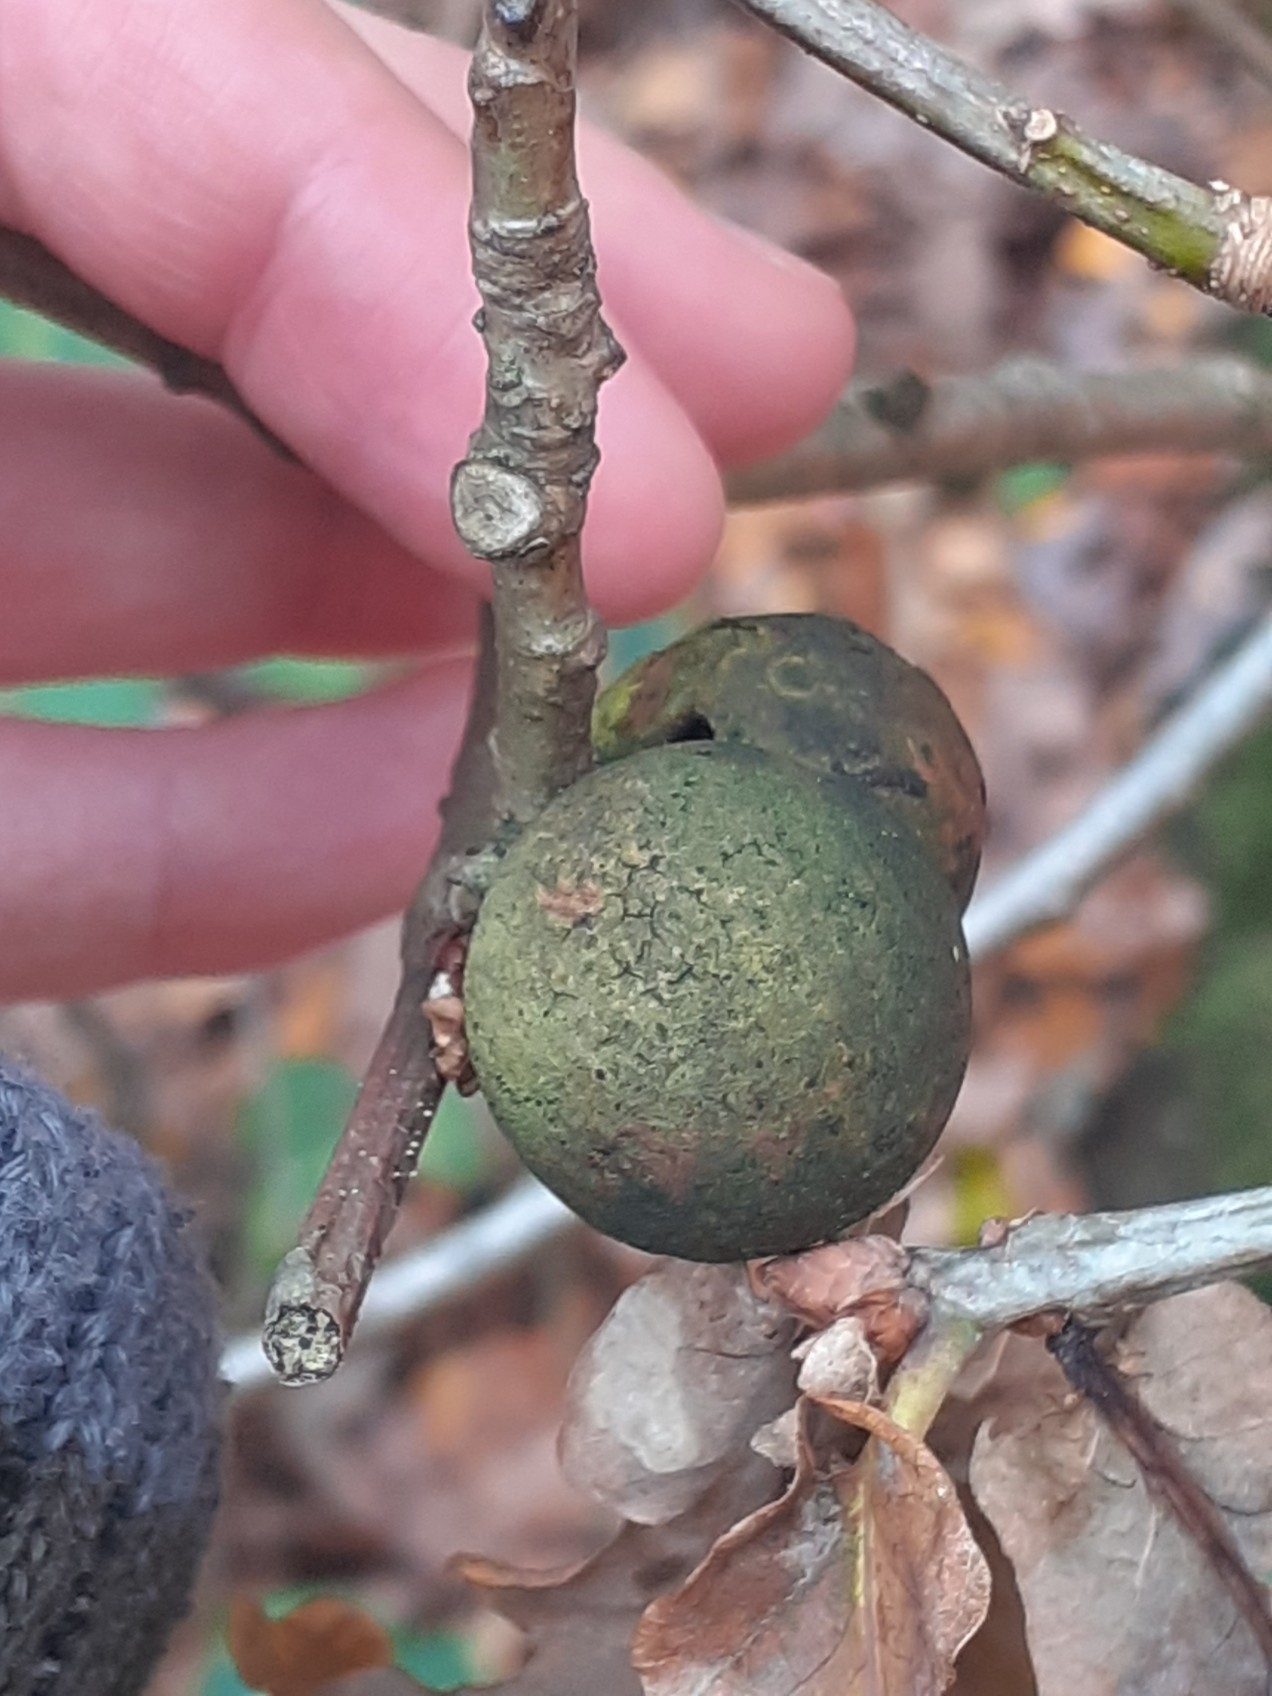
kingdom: Animalia
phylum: Arthropoda
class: Insecta
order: Hymenoptera
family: Cynipidae
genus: Andricus
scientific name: Andricus kollari
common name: Marble gall
